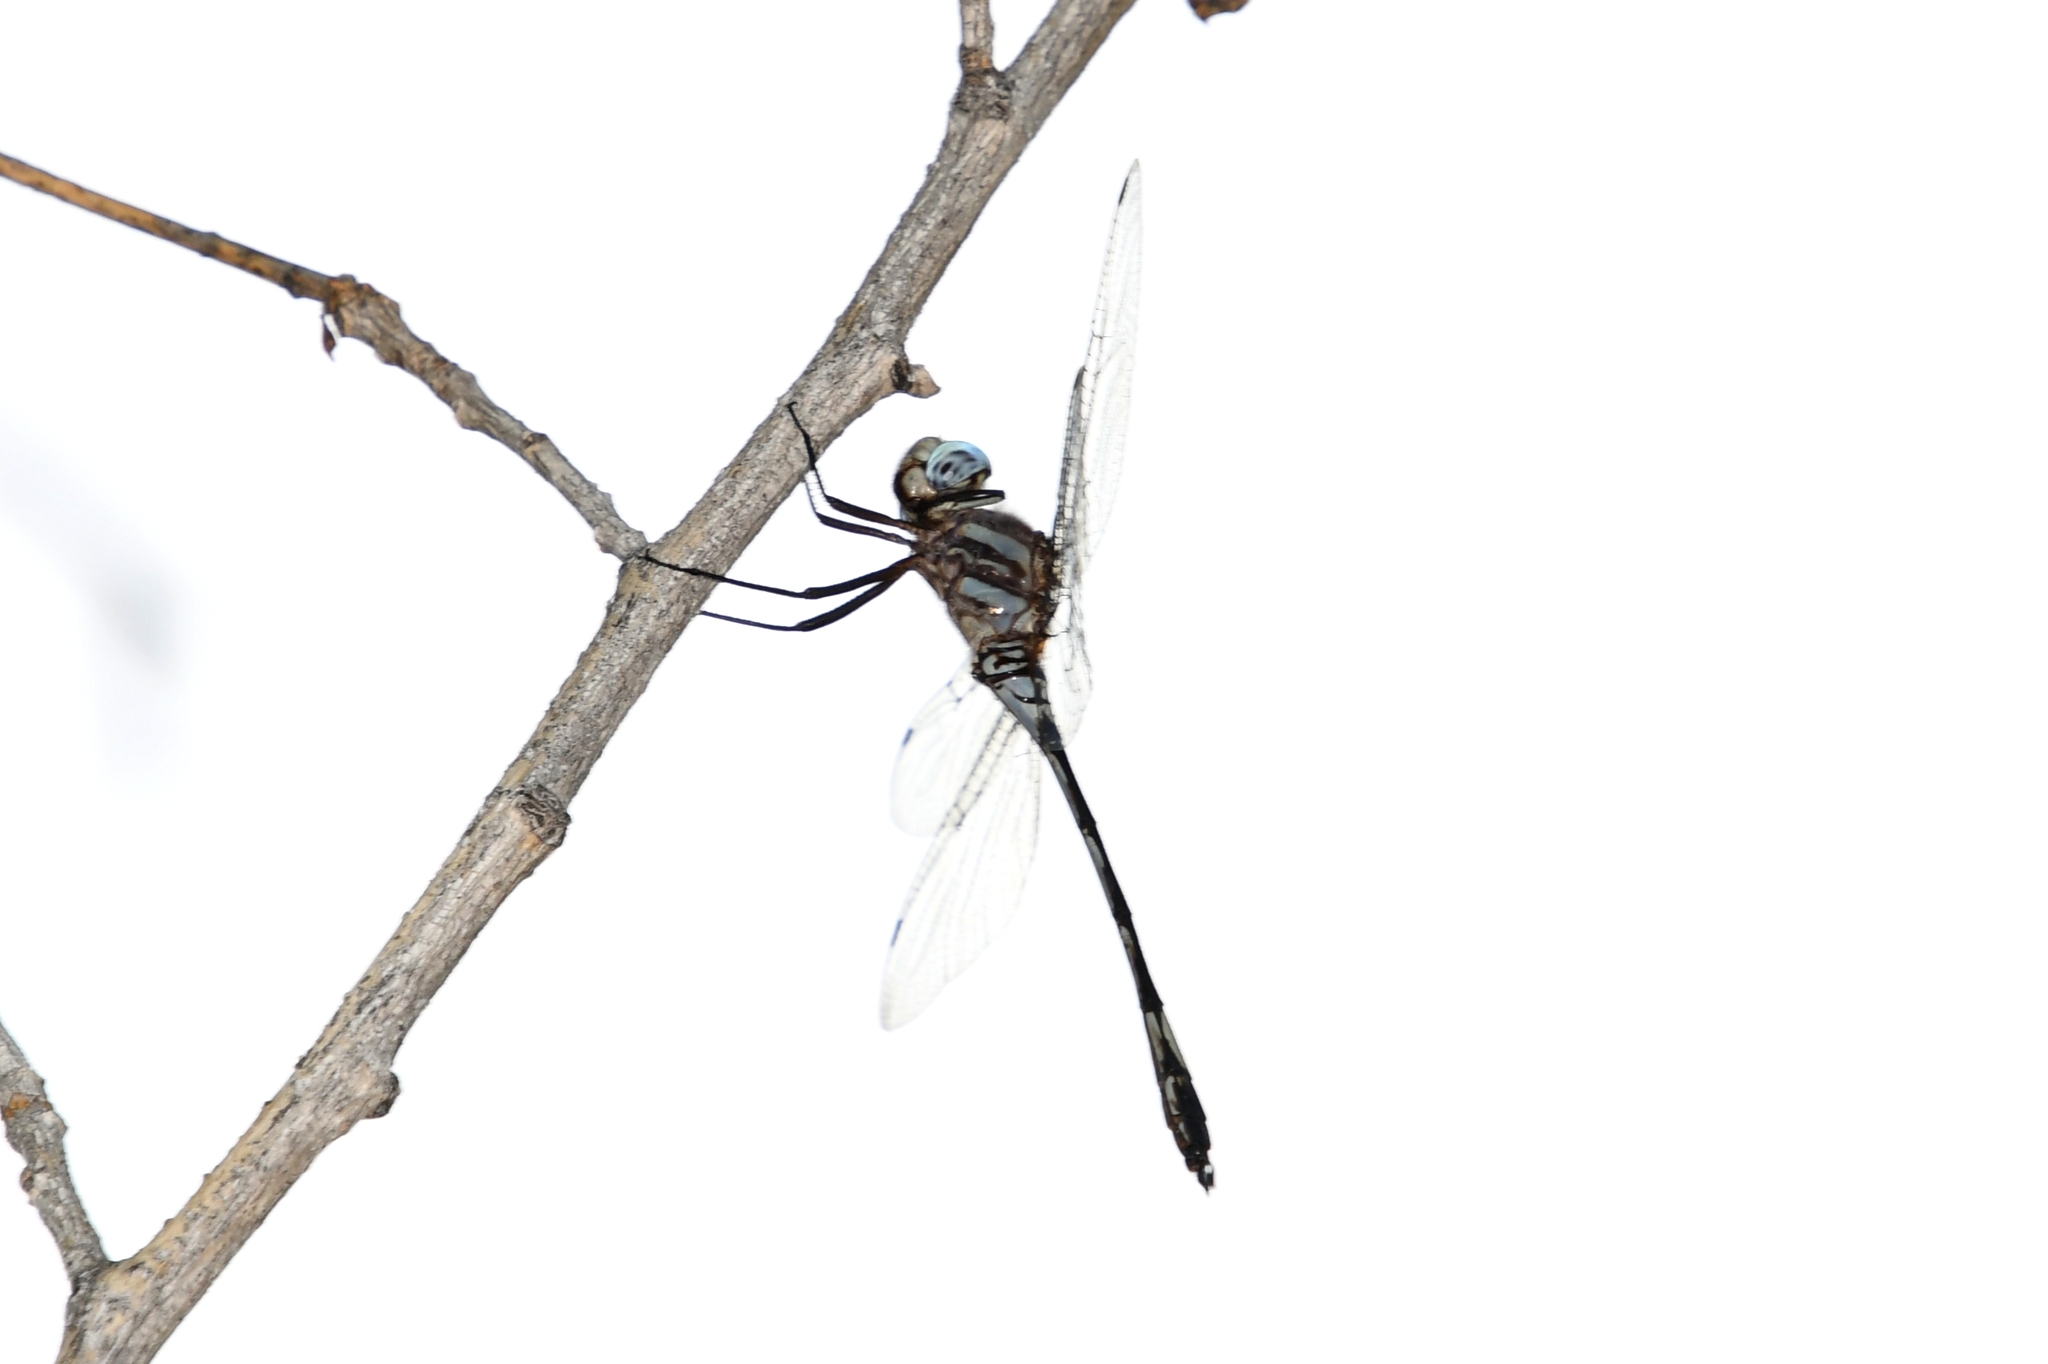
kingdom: Animalia
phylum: Arthropoda
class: Insecta
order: Odonata
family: Libellulidae
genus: Brechmorhoga
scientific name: Brechmorhoga mendax
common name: Pale-faced clubskimmer
